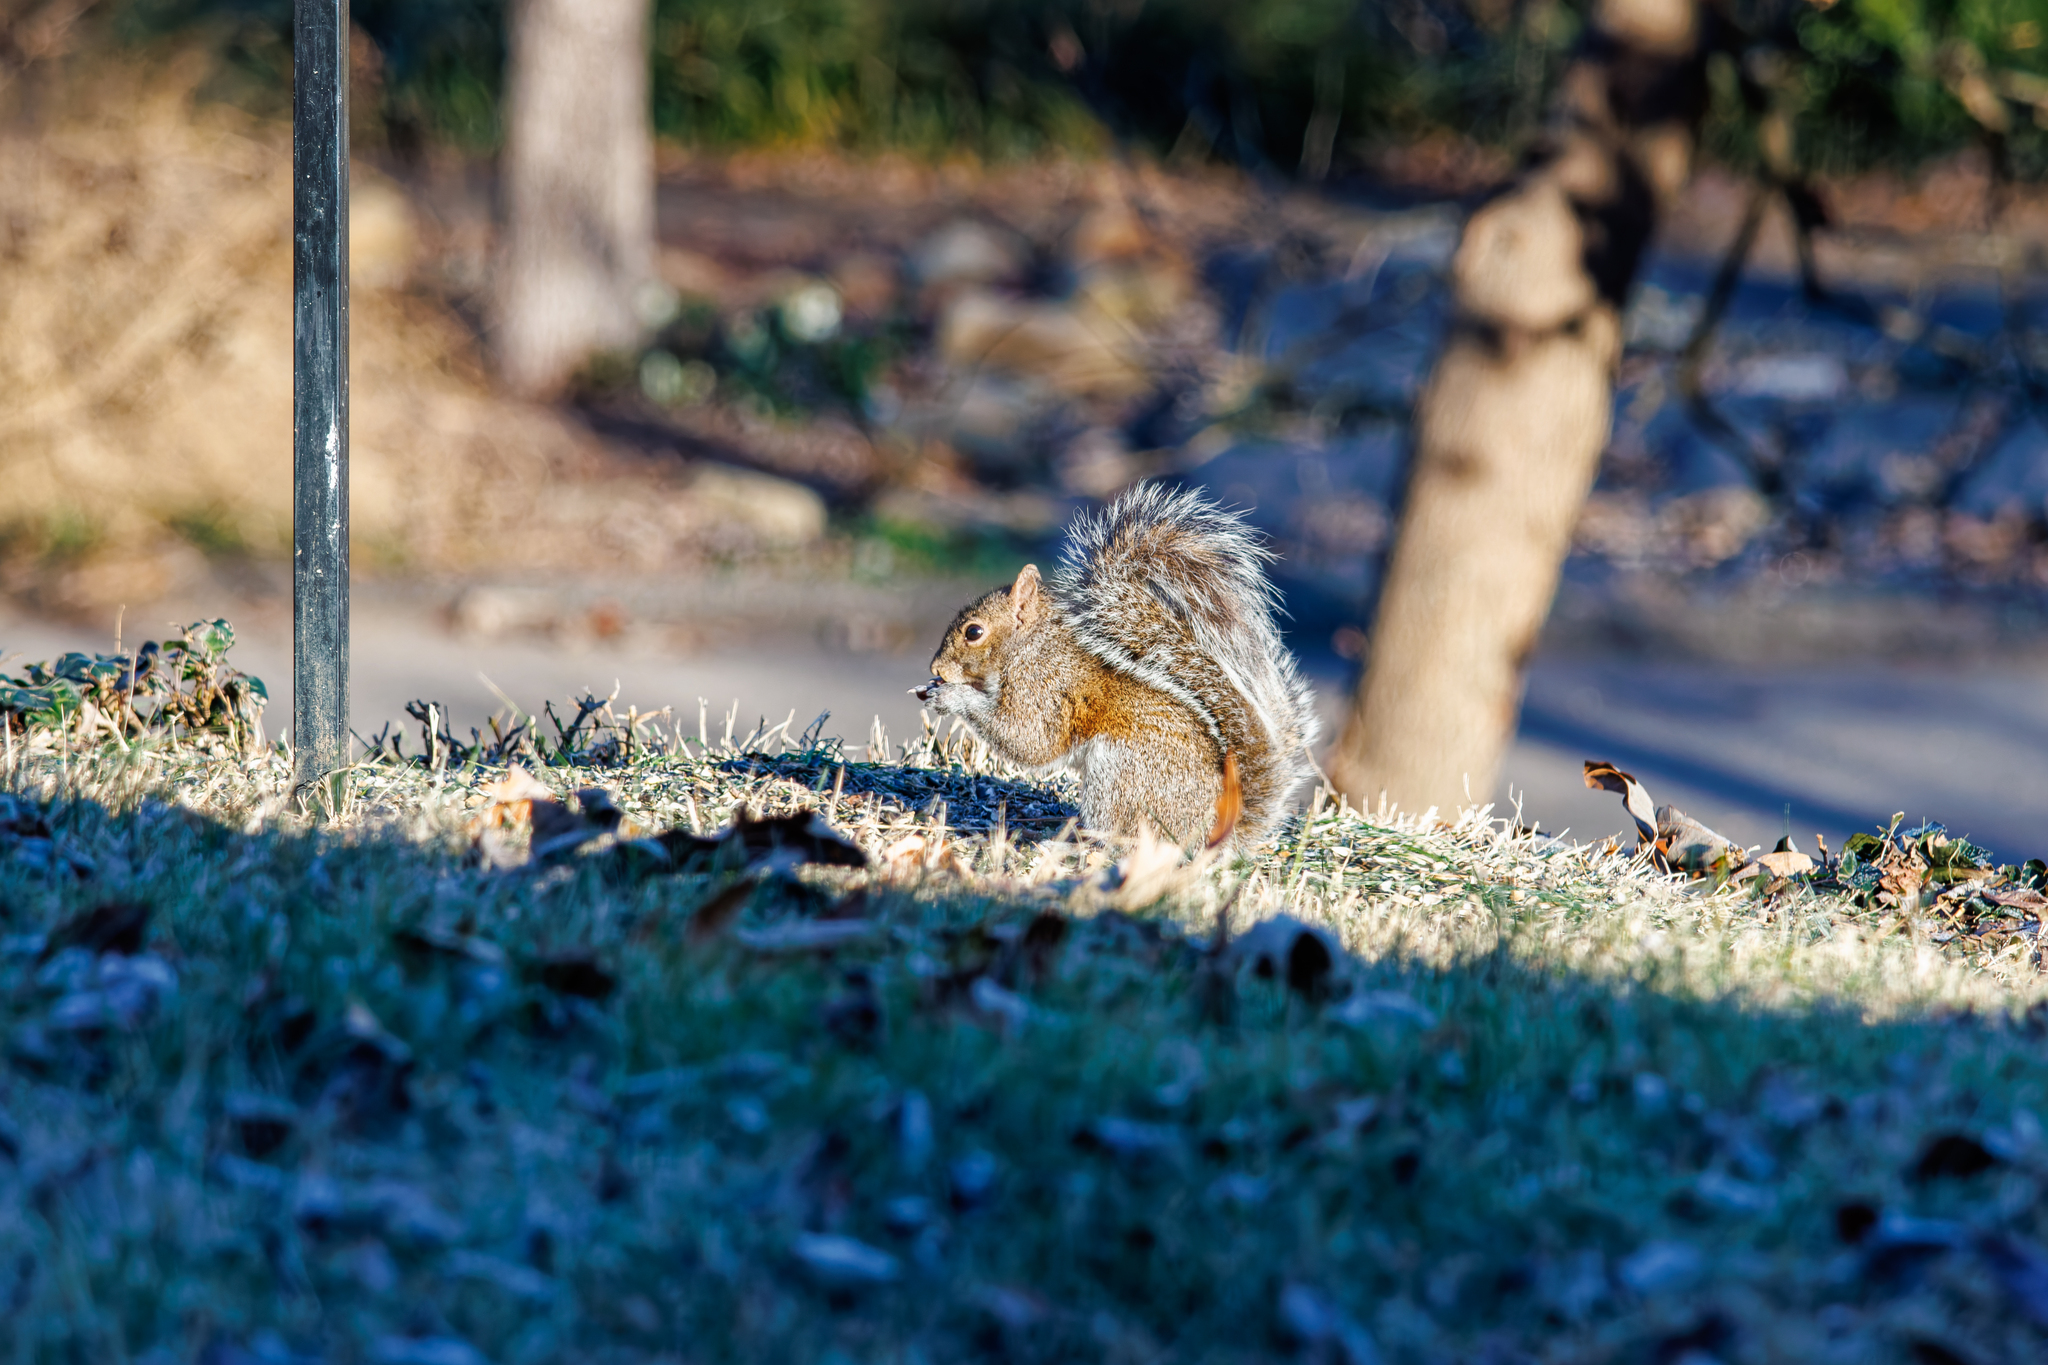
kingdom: Animalia
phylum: Chordata
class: Mammalia
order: Rodentia
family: Sciuridae
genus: Sciurus
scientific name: Sciurus carolinensis
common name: Eastern gray squirrel
